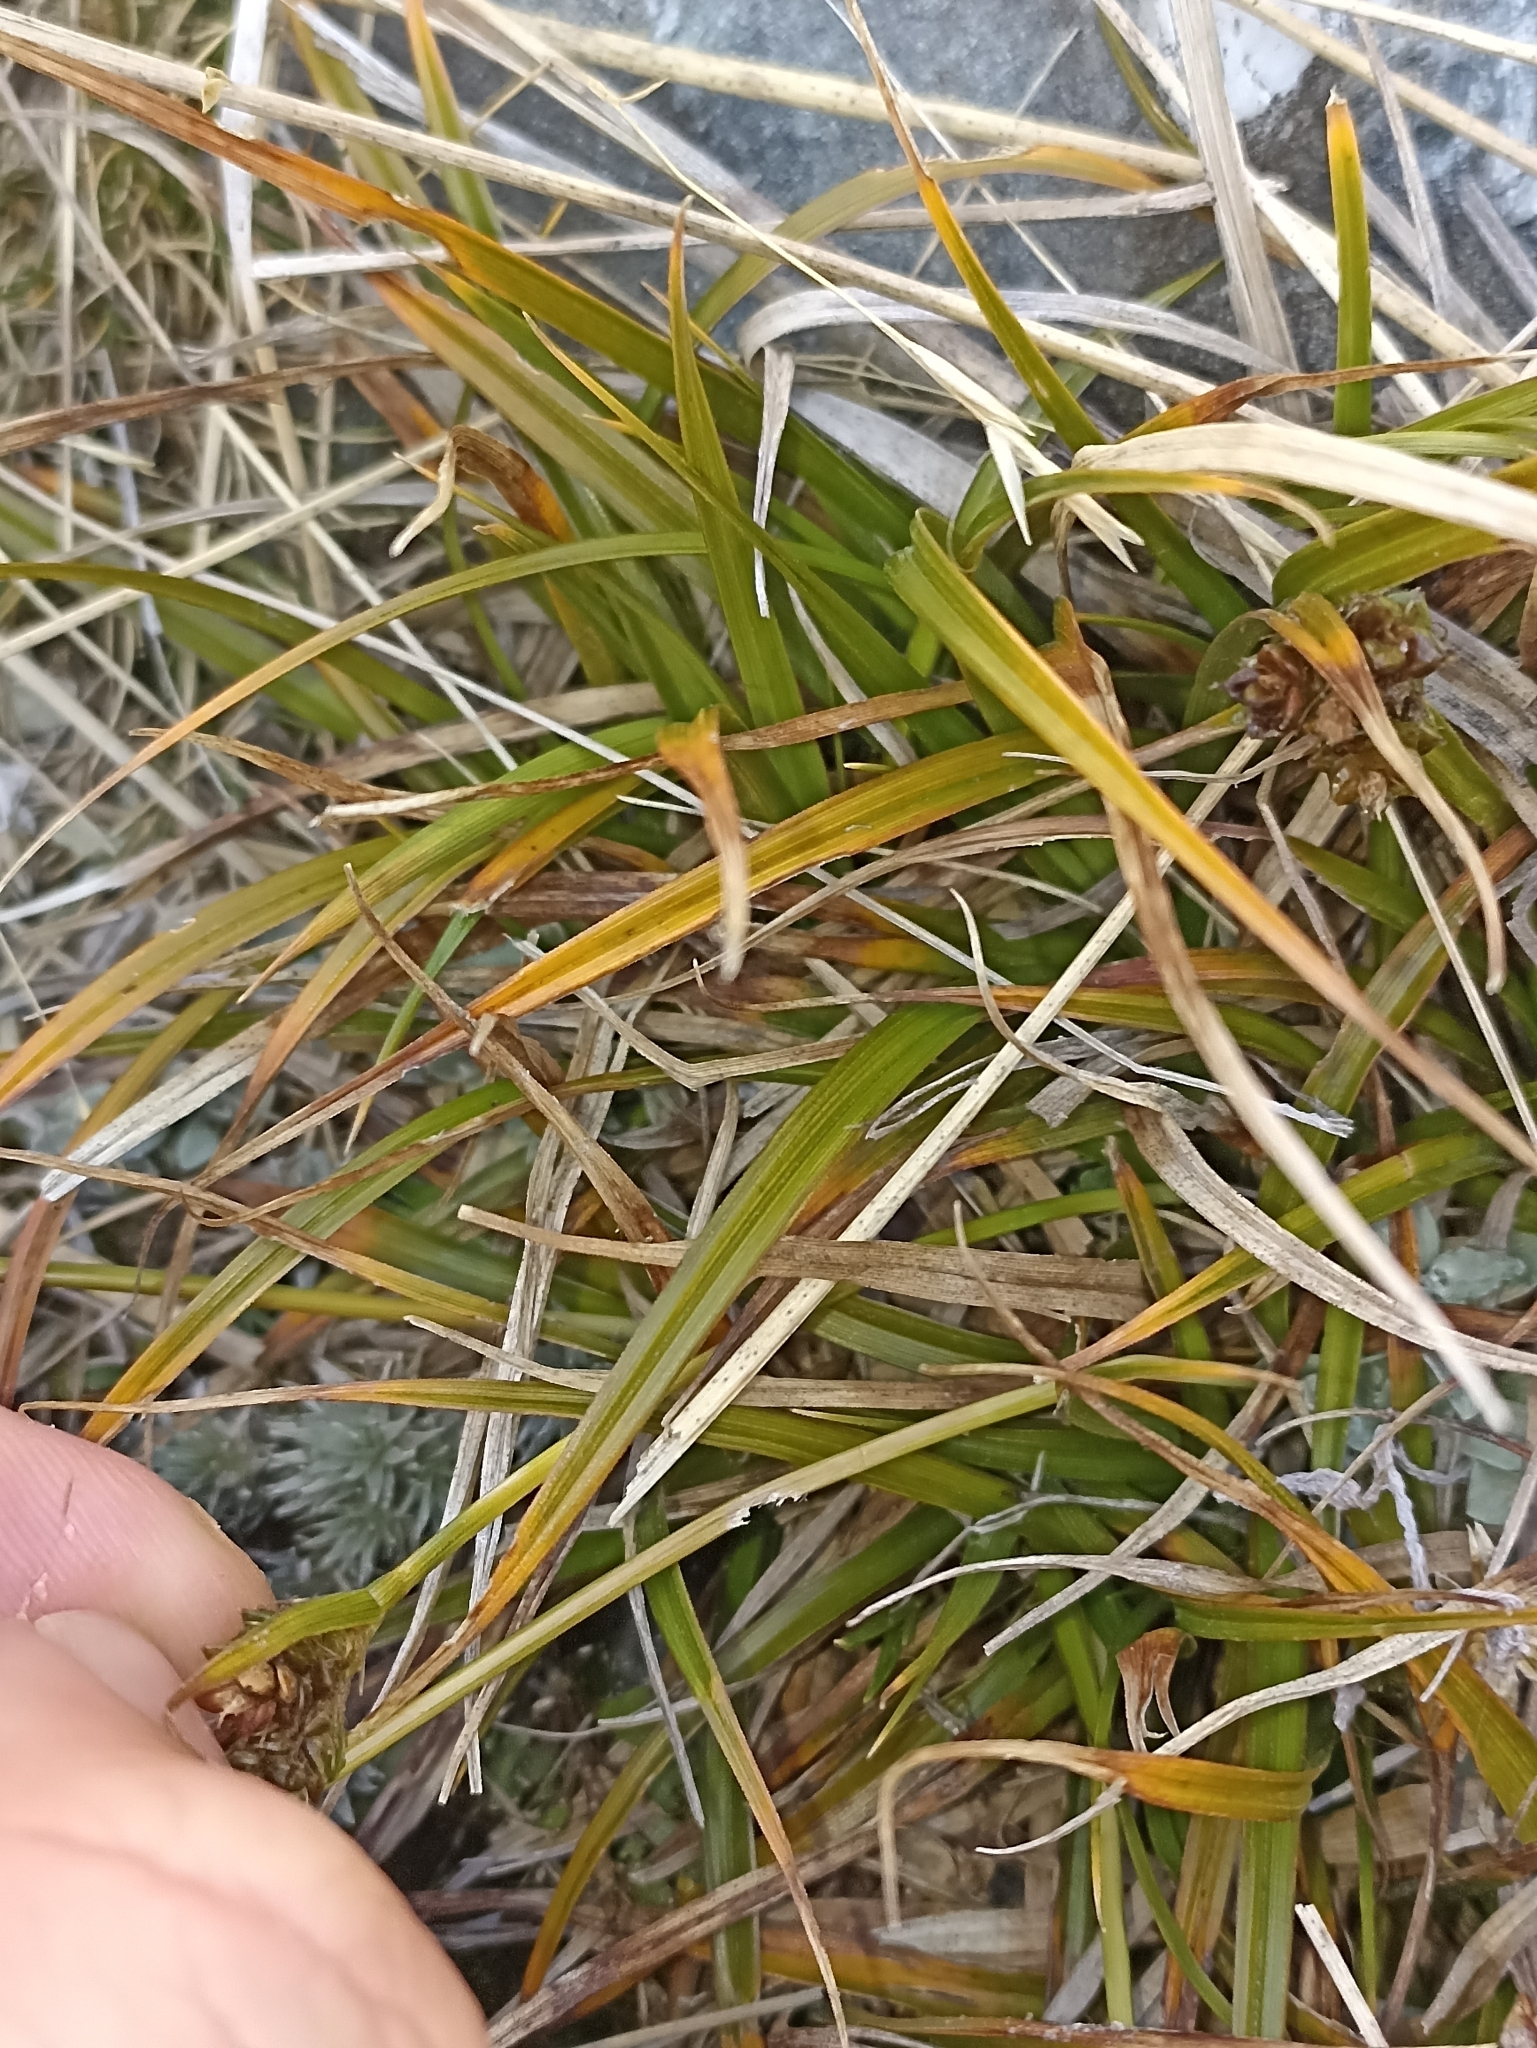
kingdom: Plantae
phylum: Tracheophyta
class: Liliopsida
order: Poales
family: Cyperaceae
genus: Carex
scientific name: Carex wakatipu
